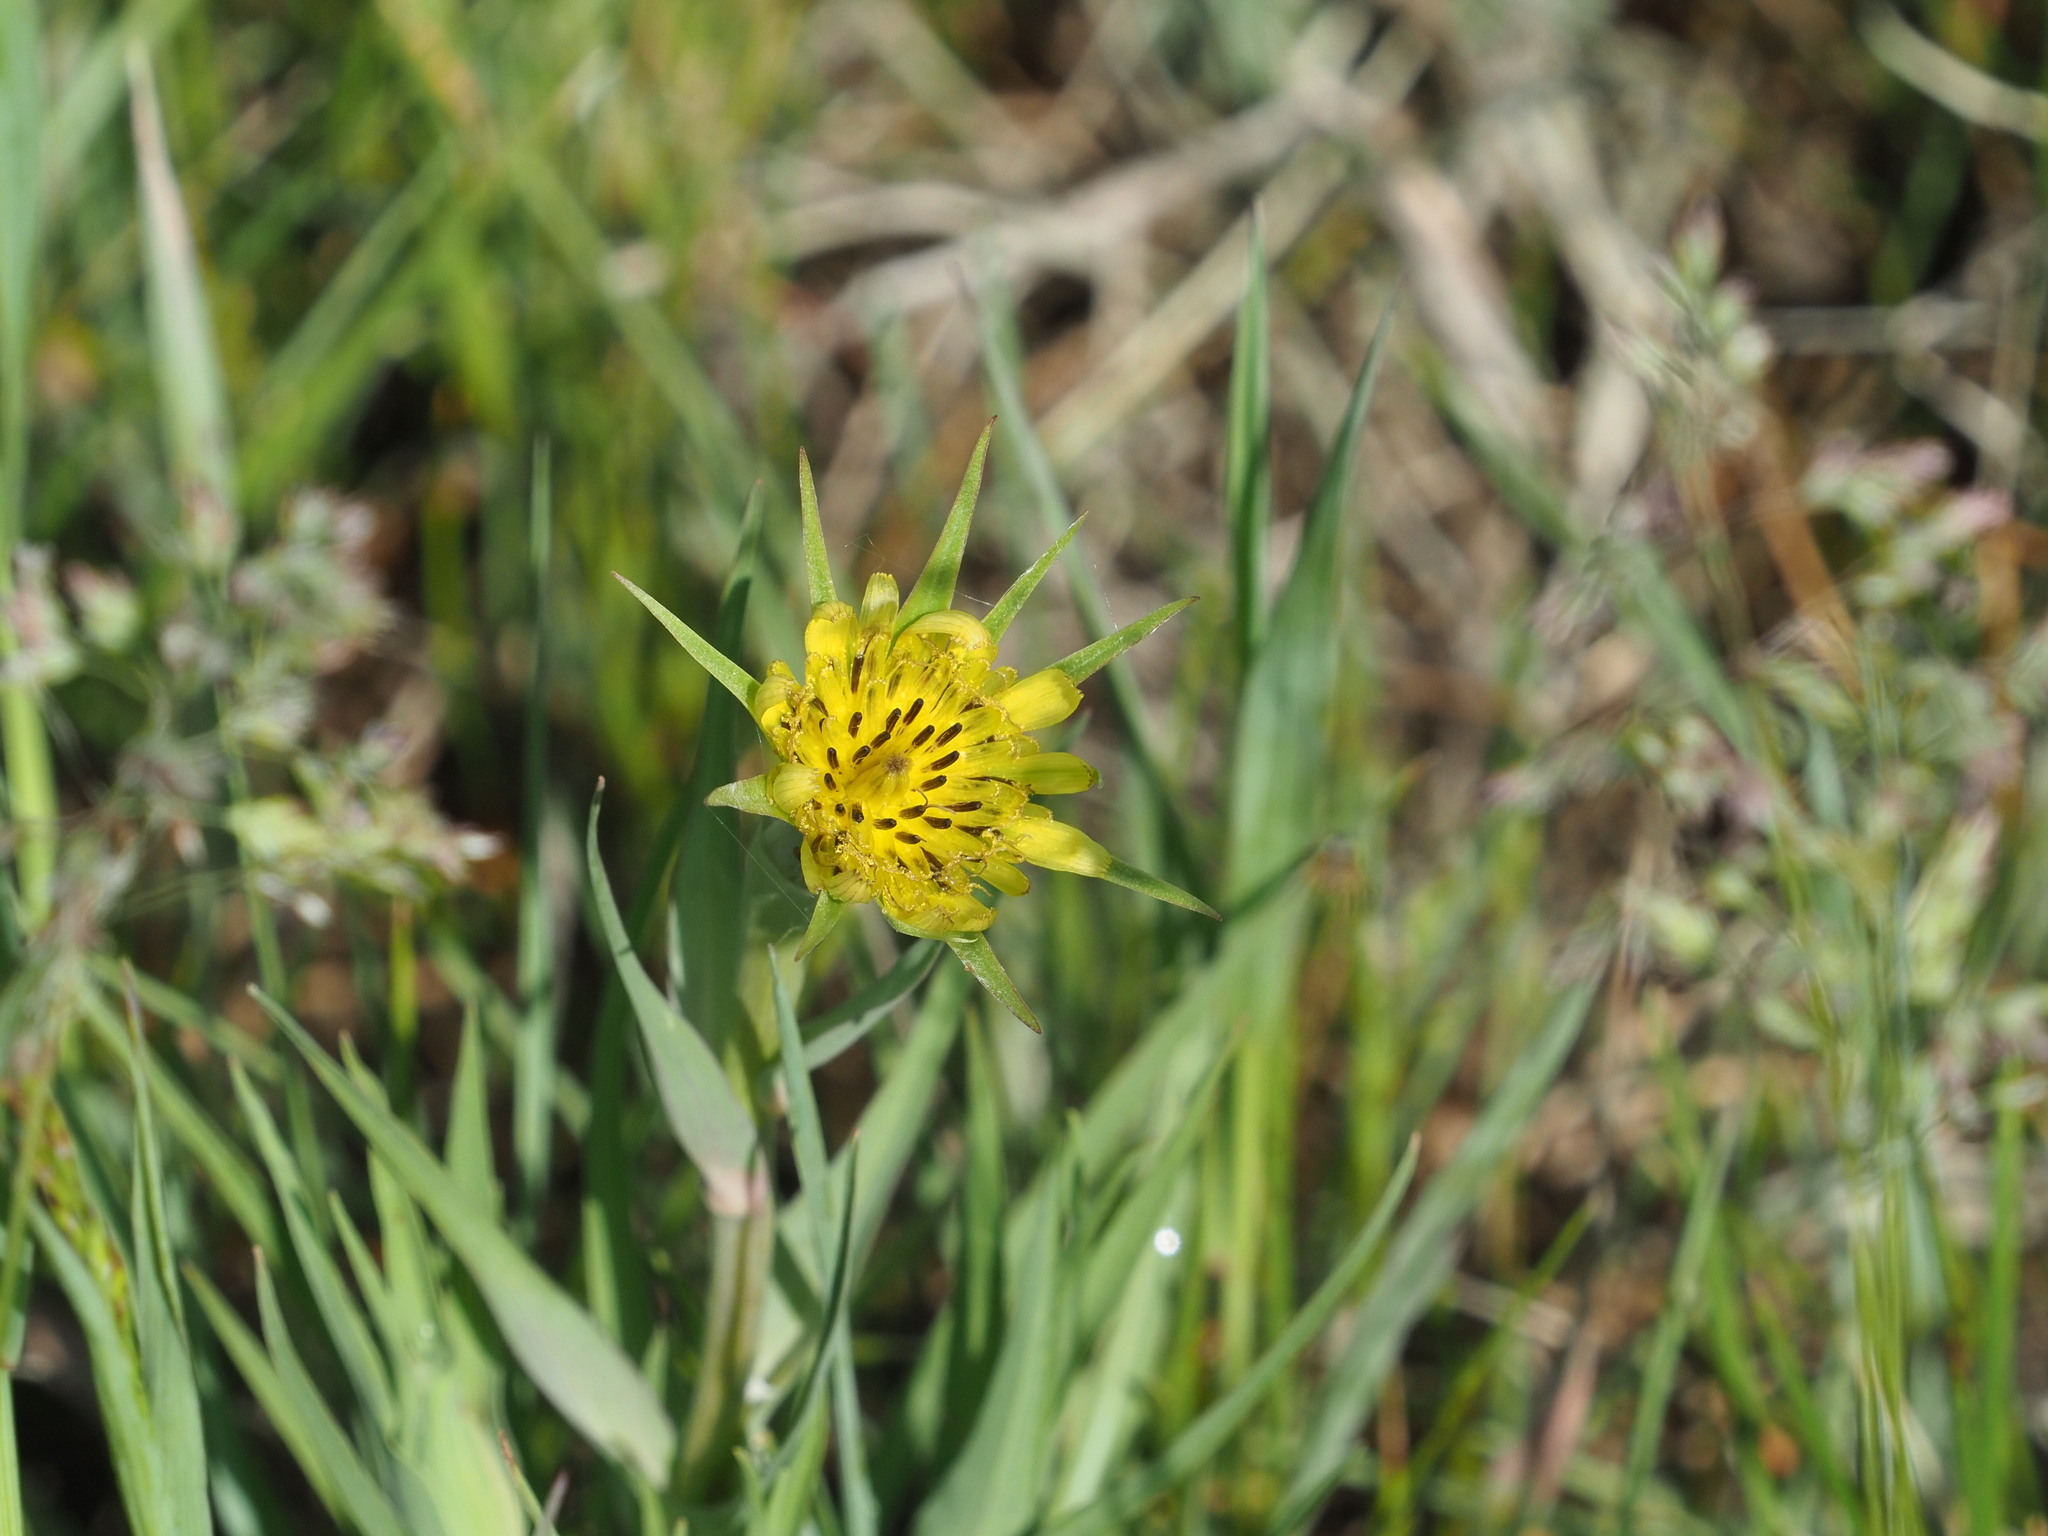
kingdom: Plantae
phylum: Tracheophyta
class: Magnoliopsida
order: Asterales
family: Asteraceae
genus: Tragopogon
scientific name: Tragopogon dubius
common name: Yellow salsify
